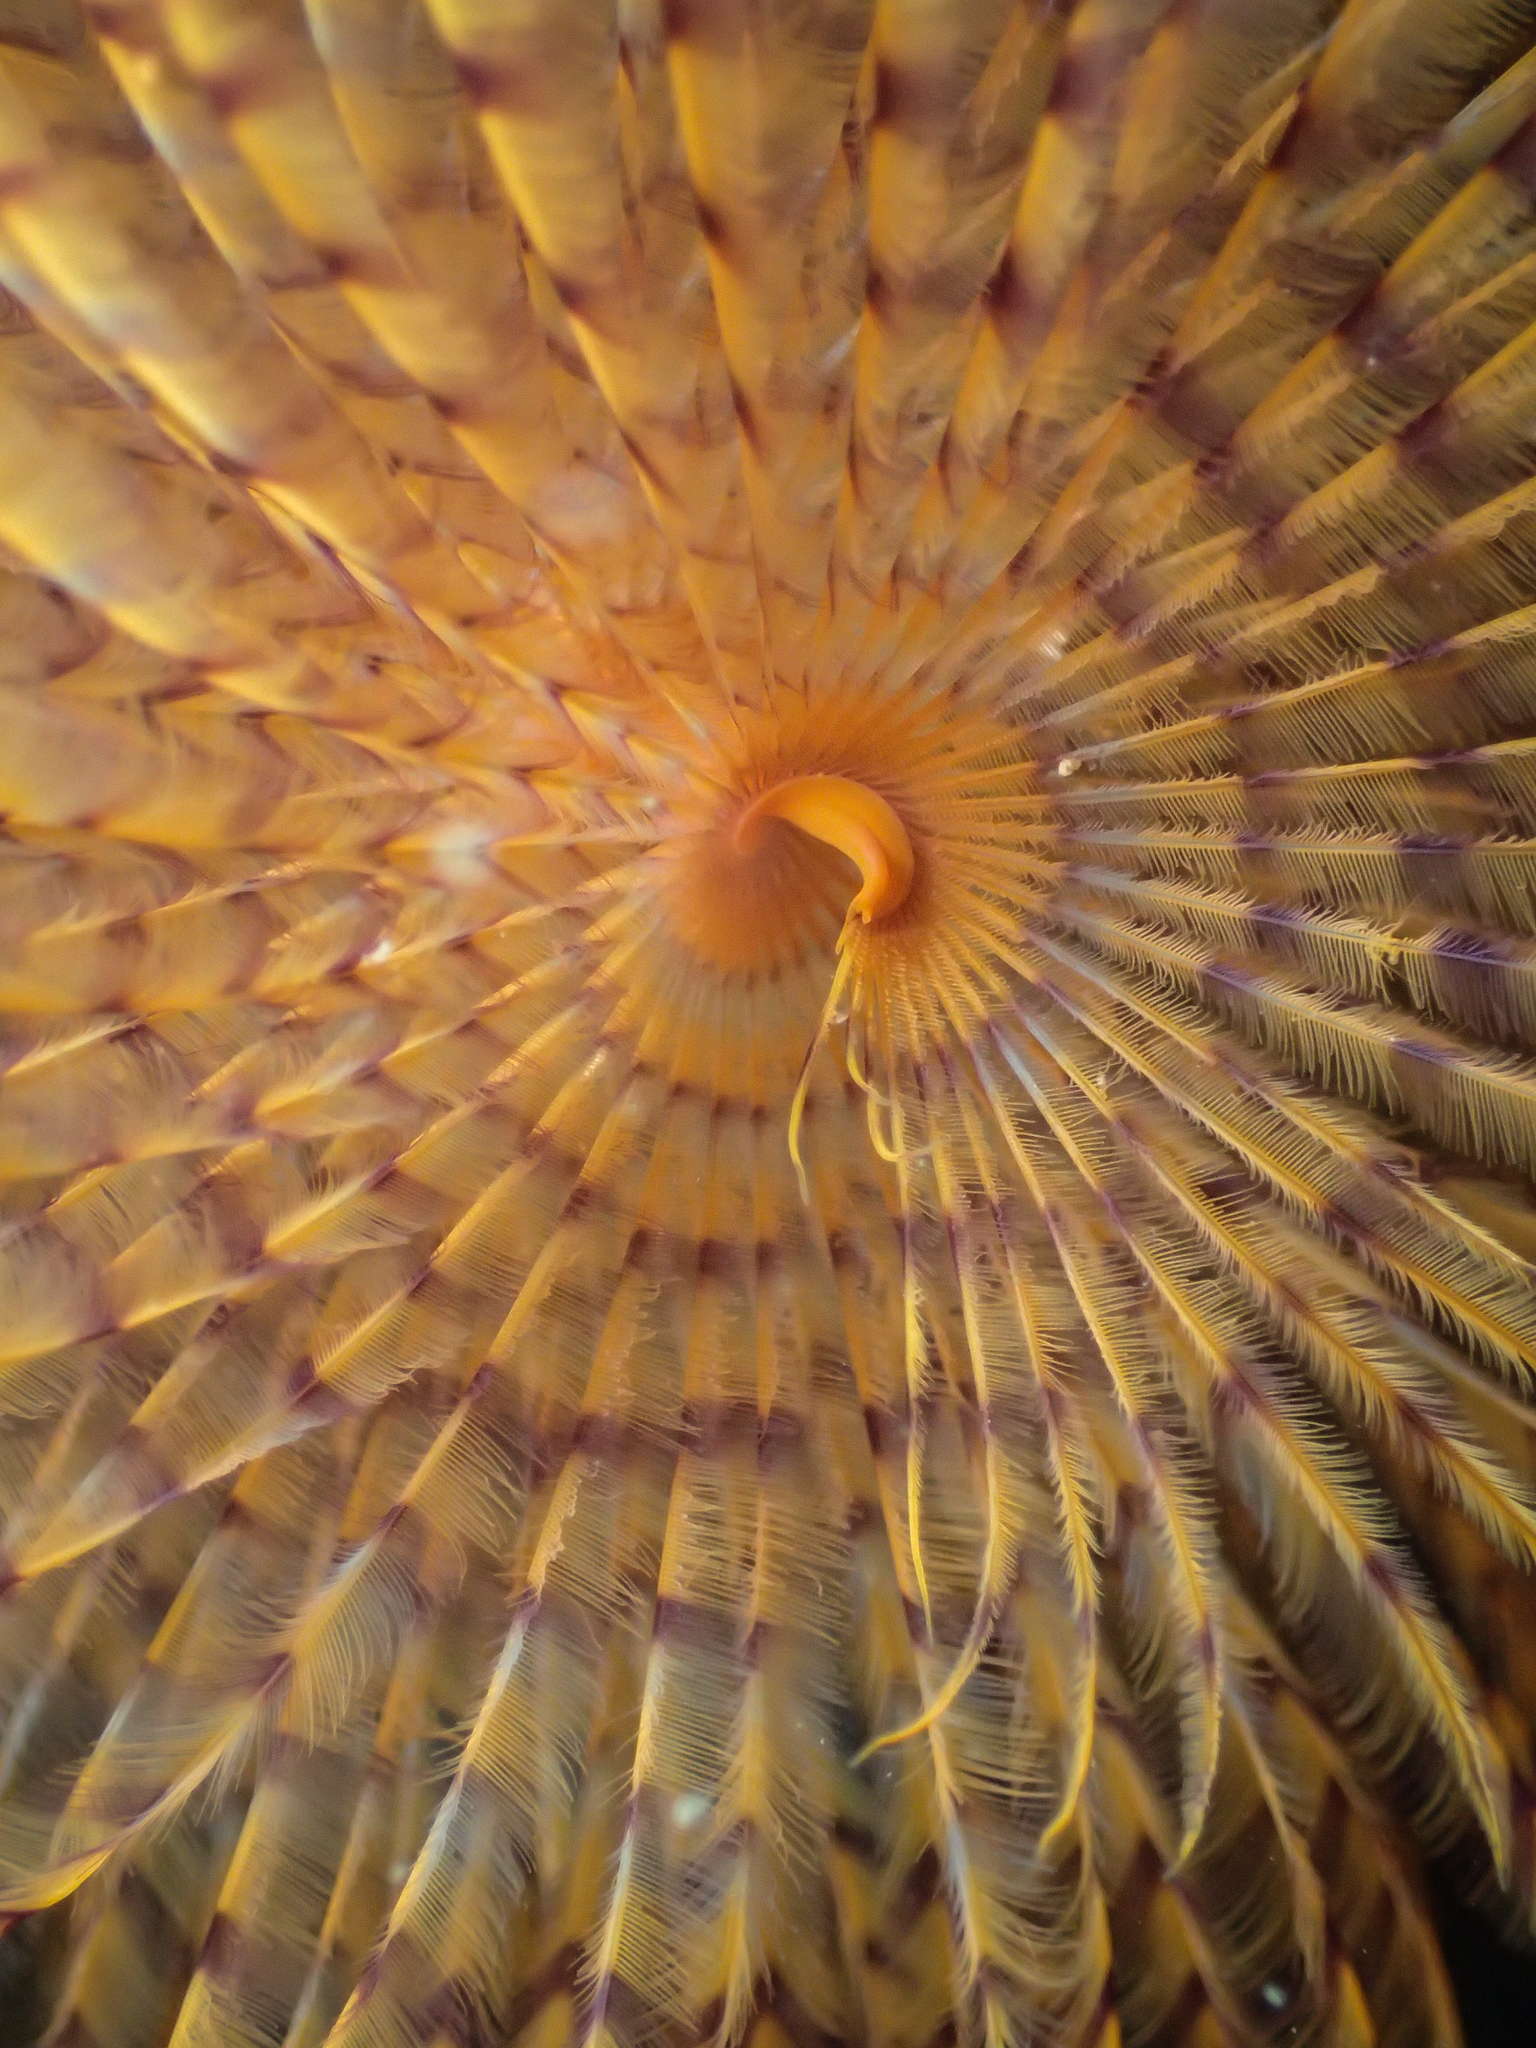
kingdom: Animalia
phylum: Annelida
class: Polychaeta
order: Sabellida
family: Sabellidae
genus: Sabella
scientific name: Sabella spallanzanii
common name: Feather duster worm
